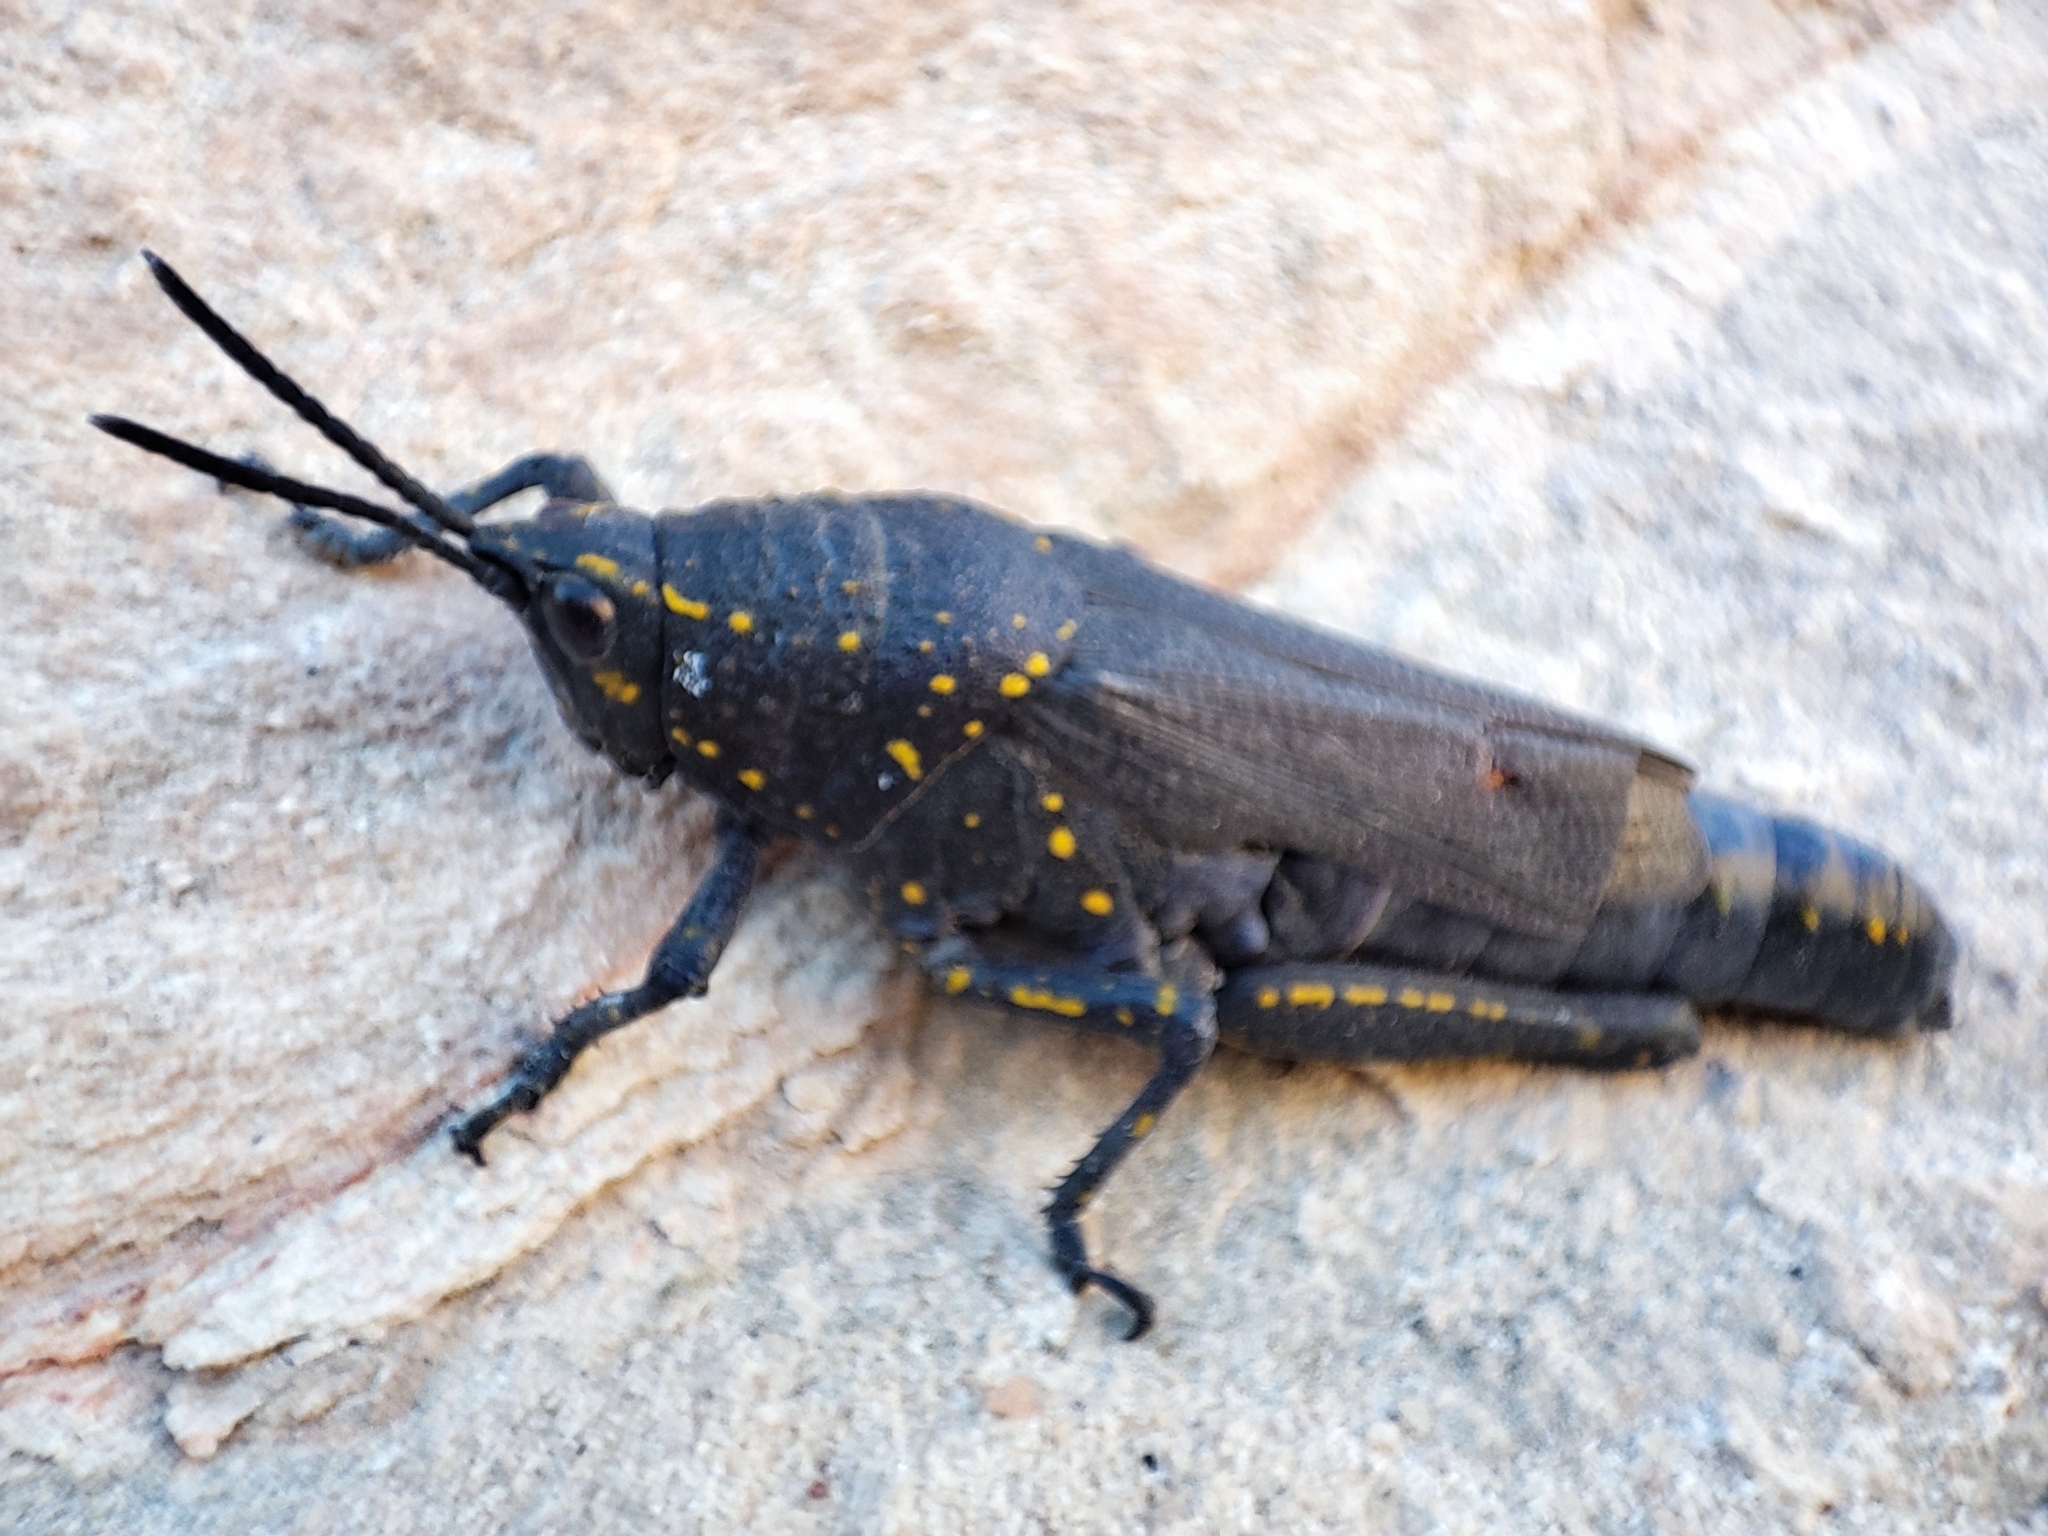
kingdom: Animalia
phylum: Arthropoda
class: Insecta
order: Orthoptera
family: Pyrgomorphidae
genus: Poekilocerus
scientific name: Poekilocerus bufonius
